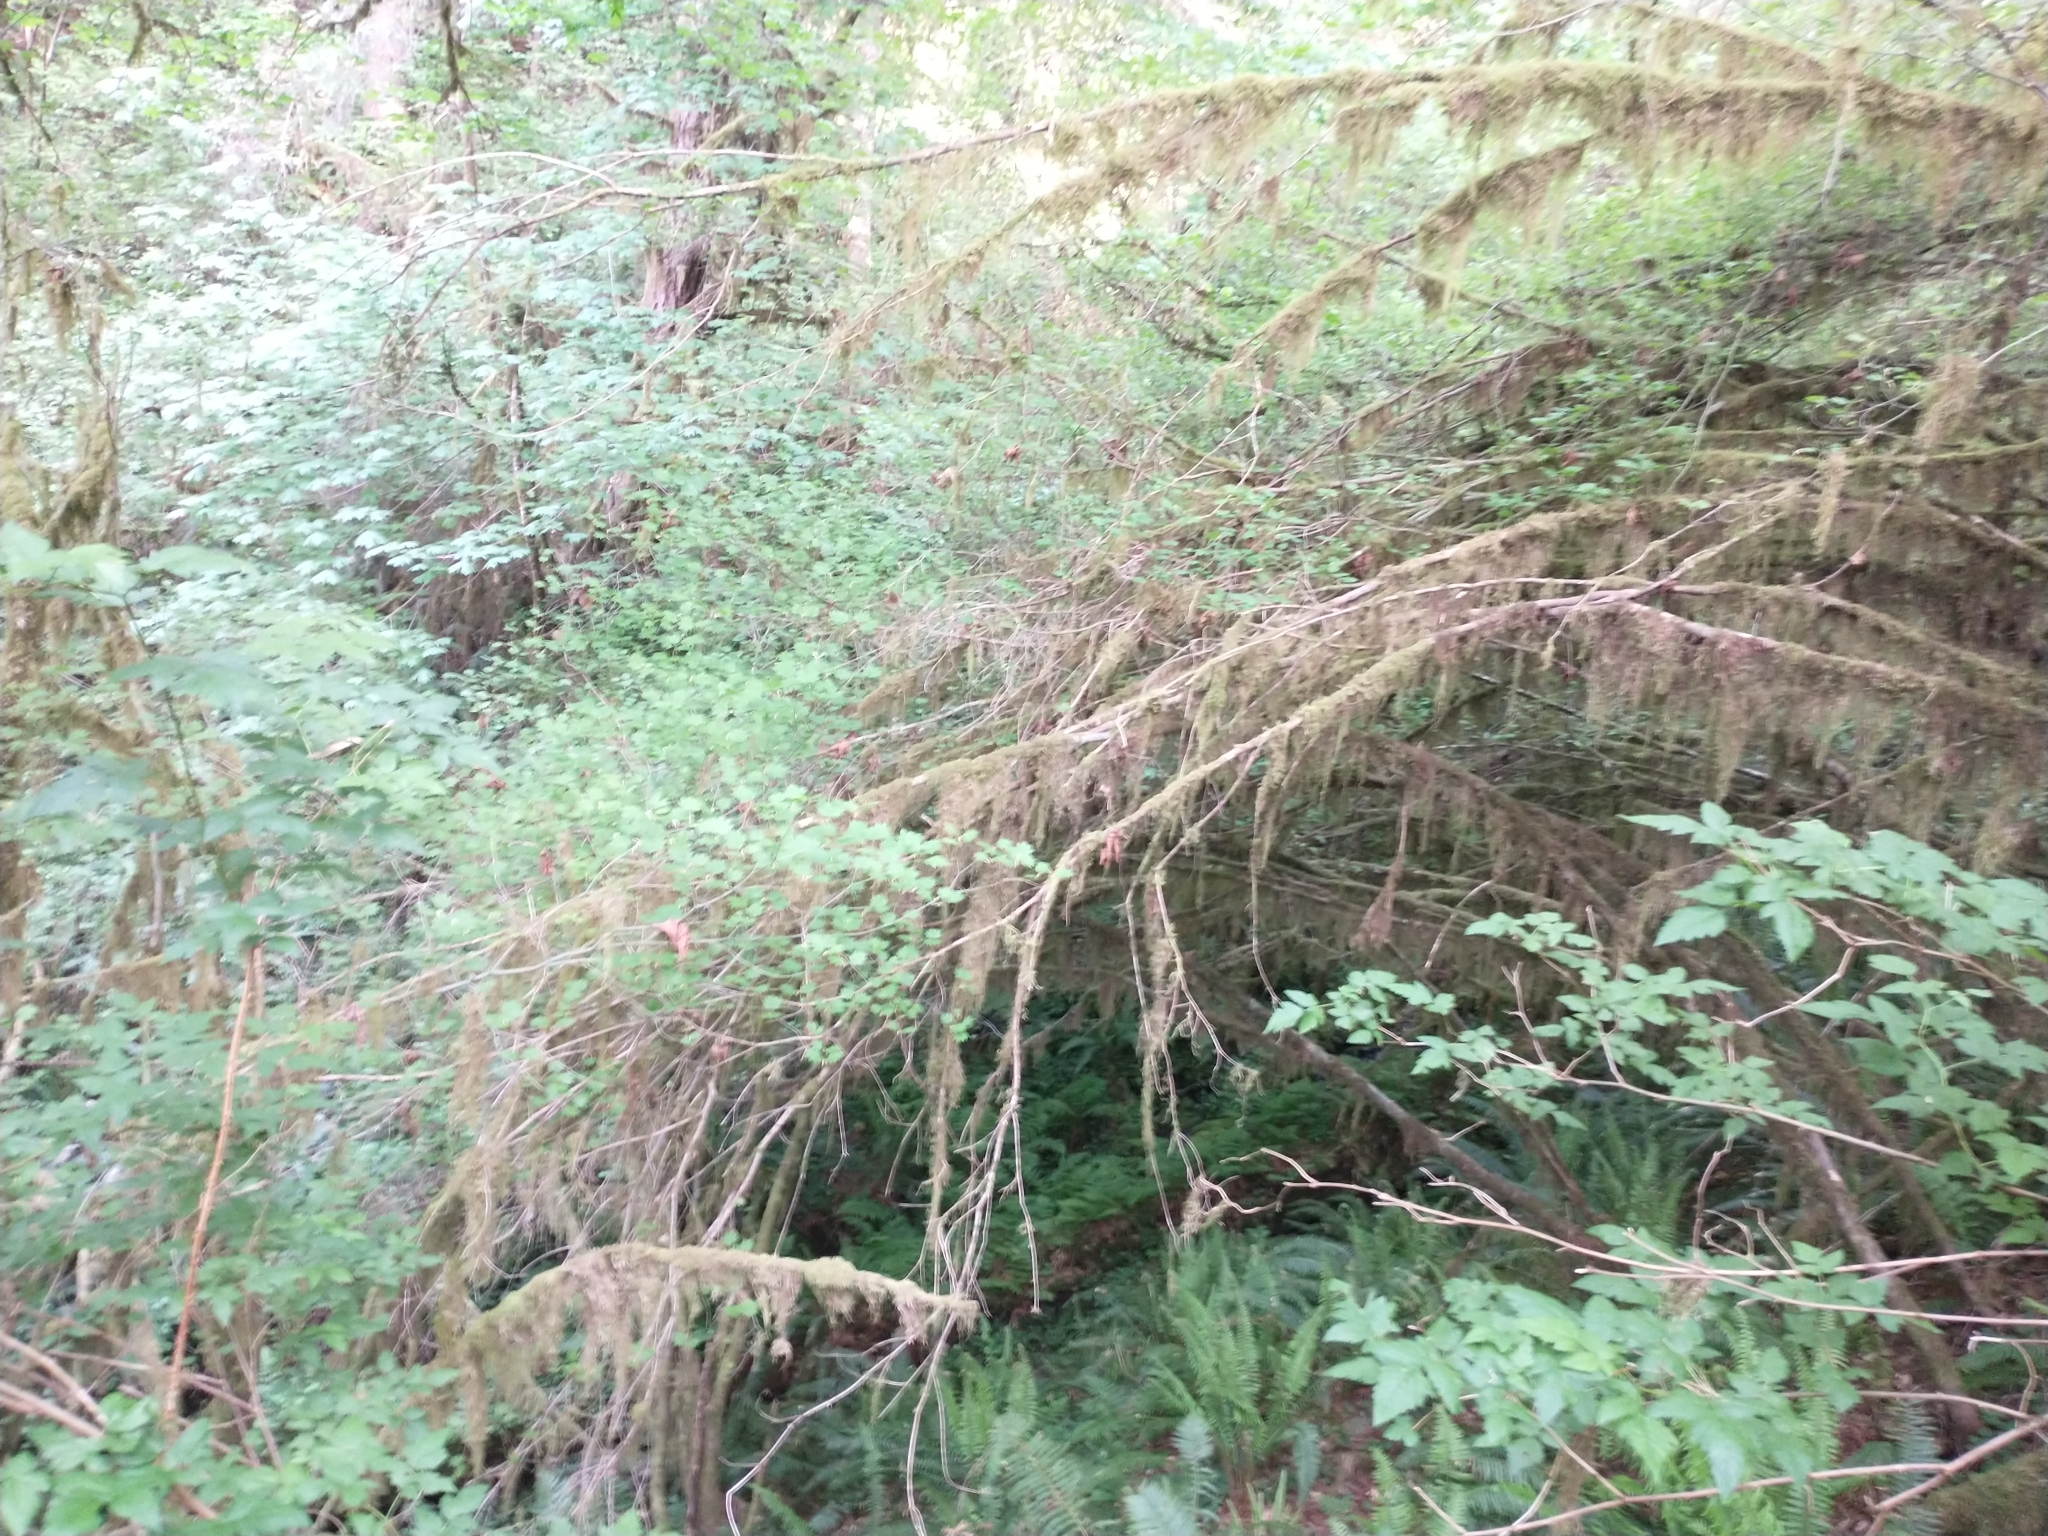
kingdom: Plantae
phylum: Tracheophyta
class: Magnoliopsida
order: Sapindales
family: Sapindaceae
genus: Acer
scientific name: Acer circinatum
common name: Vine maple
